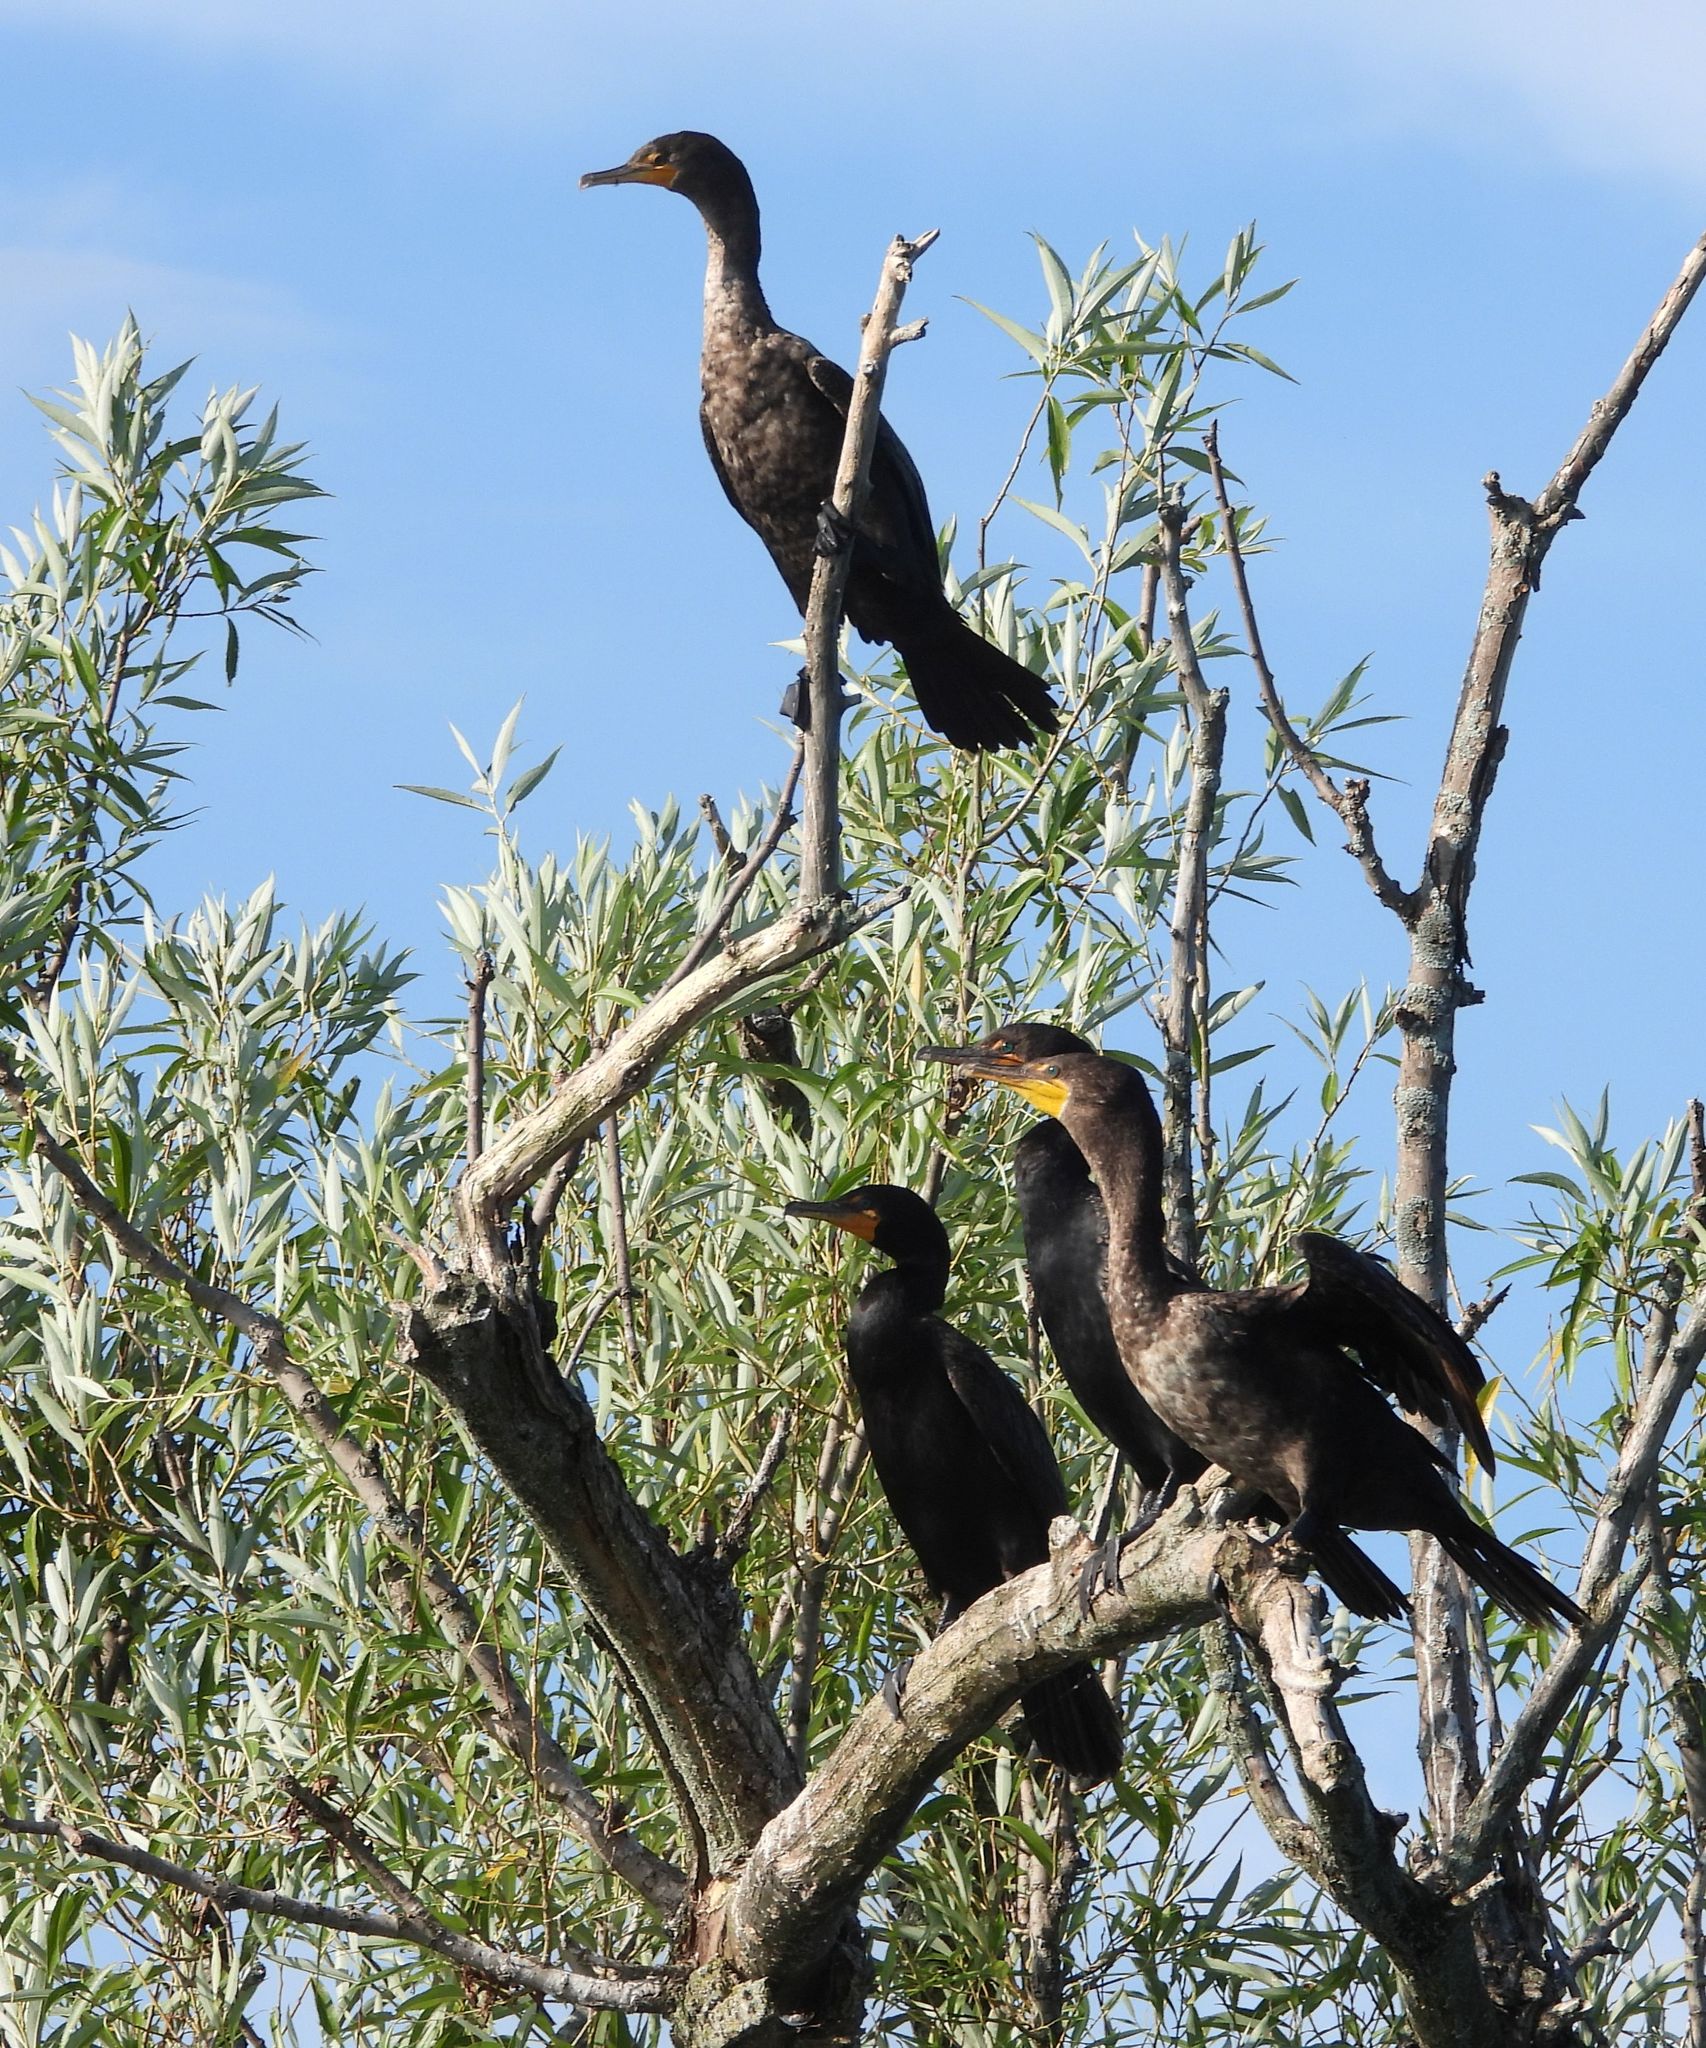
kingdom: Animalia
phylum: Chordata
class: Aves
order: Suliformes
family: Phalacrocoracidae
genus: Phalacrocorax
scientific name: Phalacrocorax auritus
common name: Double-crested cormorant
